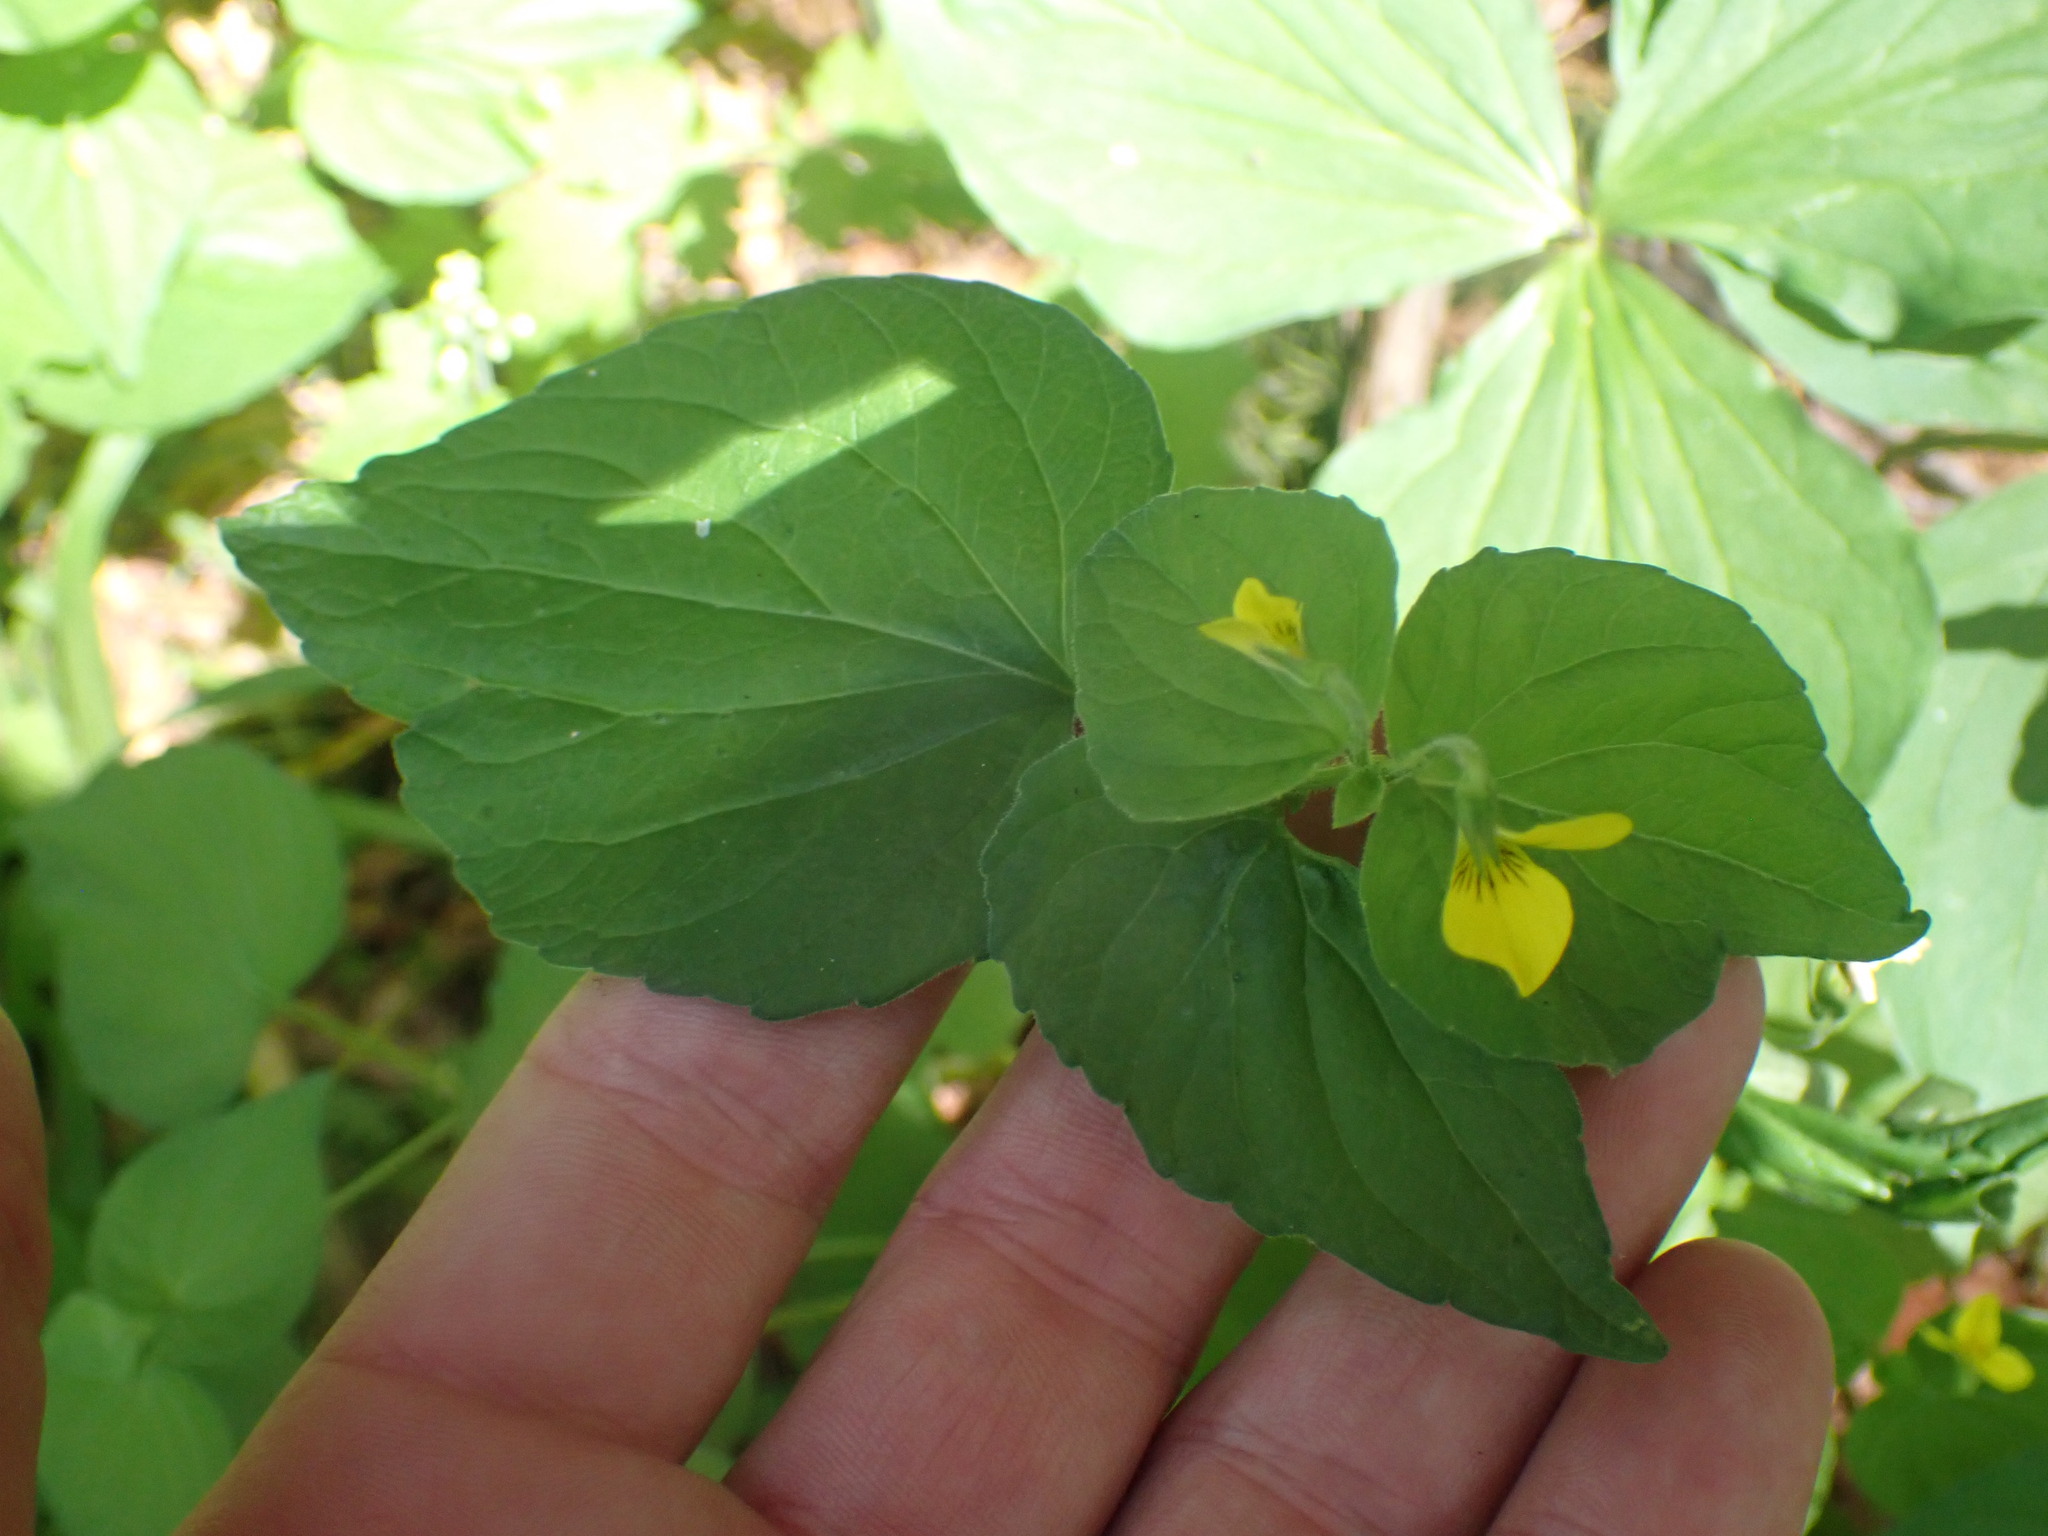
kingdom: Plantae
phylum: Tracheophyta
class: Magnoliopsida
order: Malpighiales
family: Violaceae
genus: Viola
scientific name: Viola glabella
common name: Stream violet
